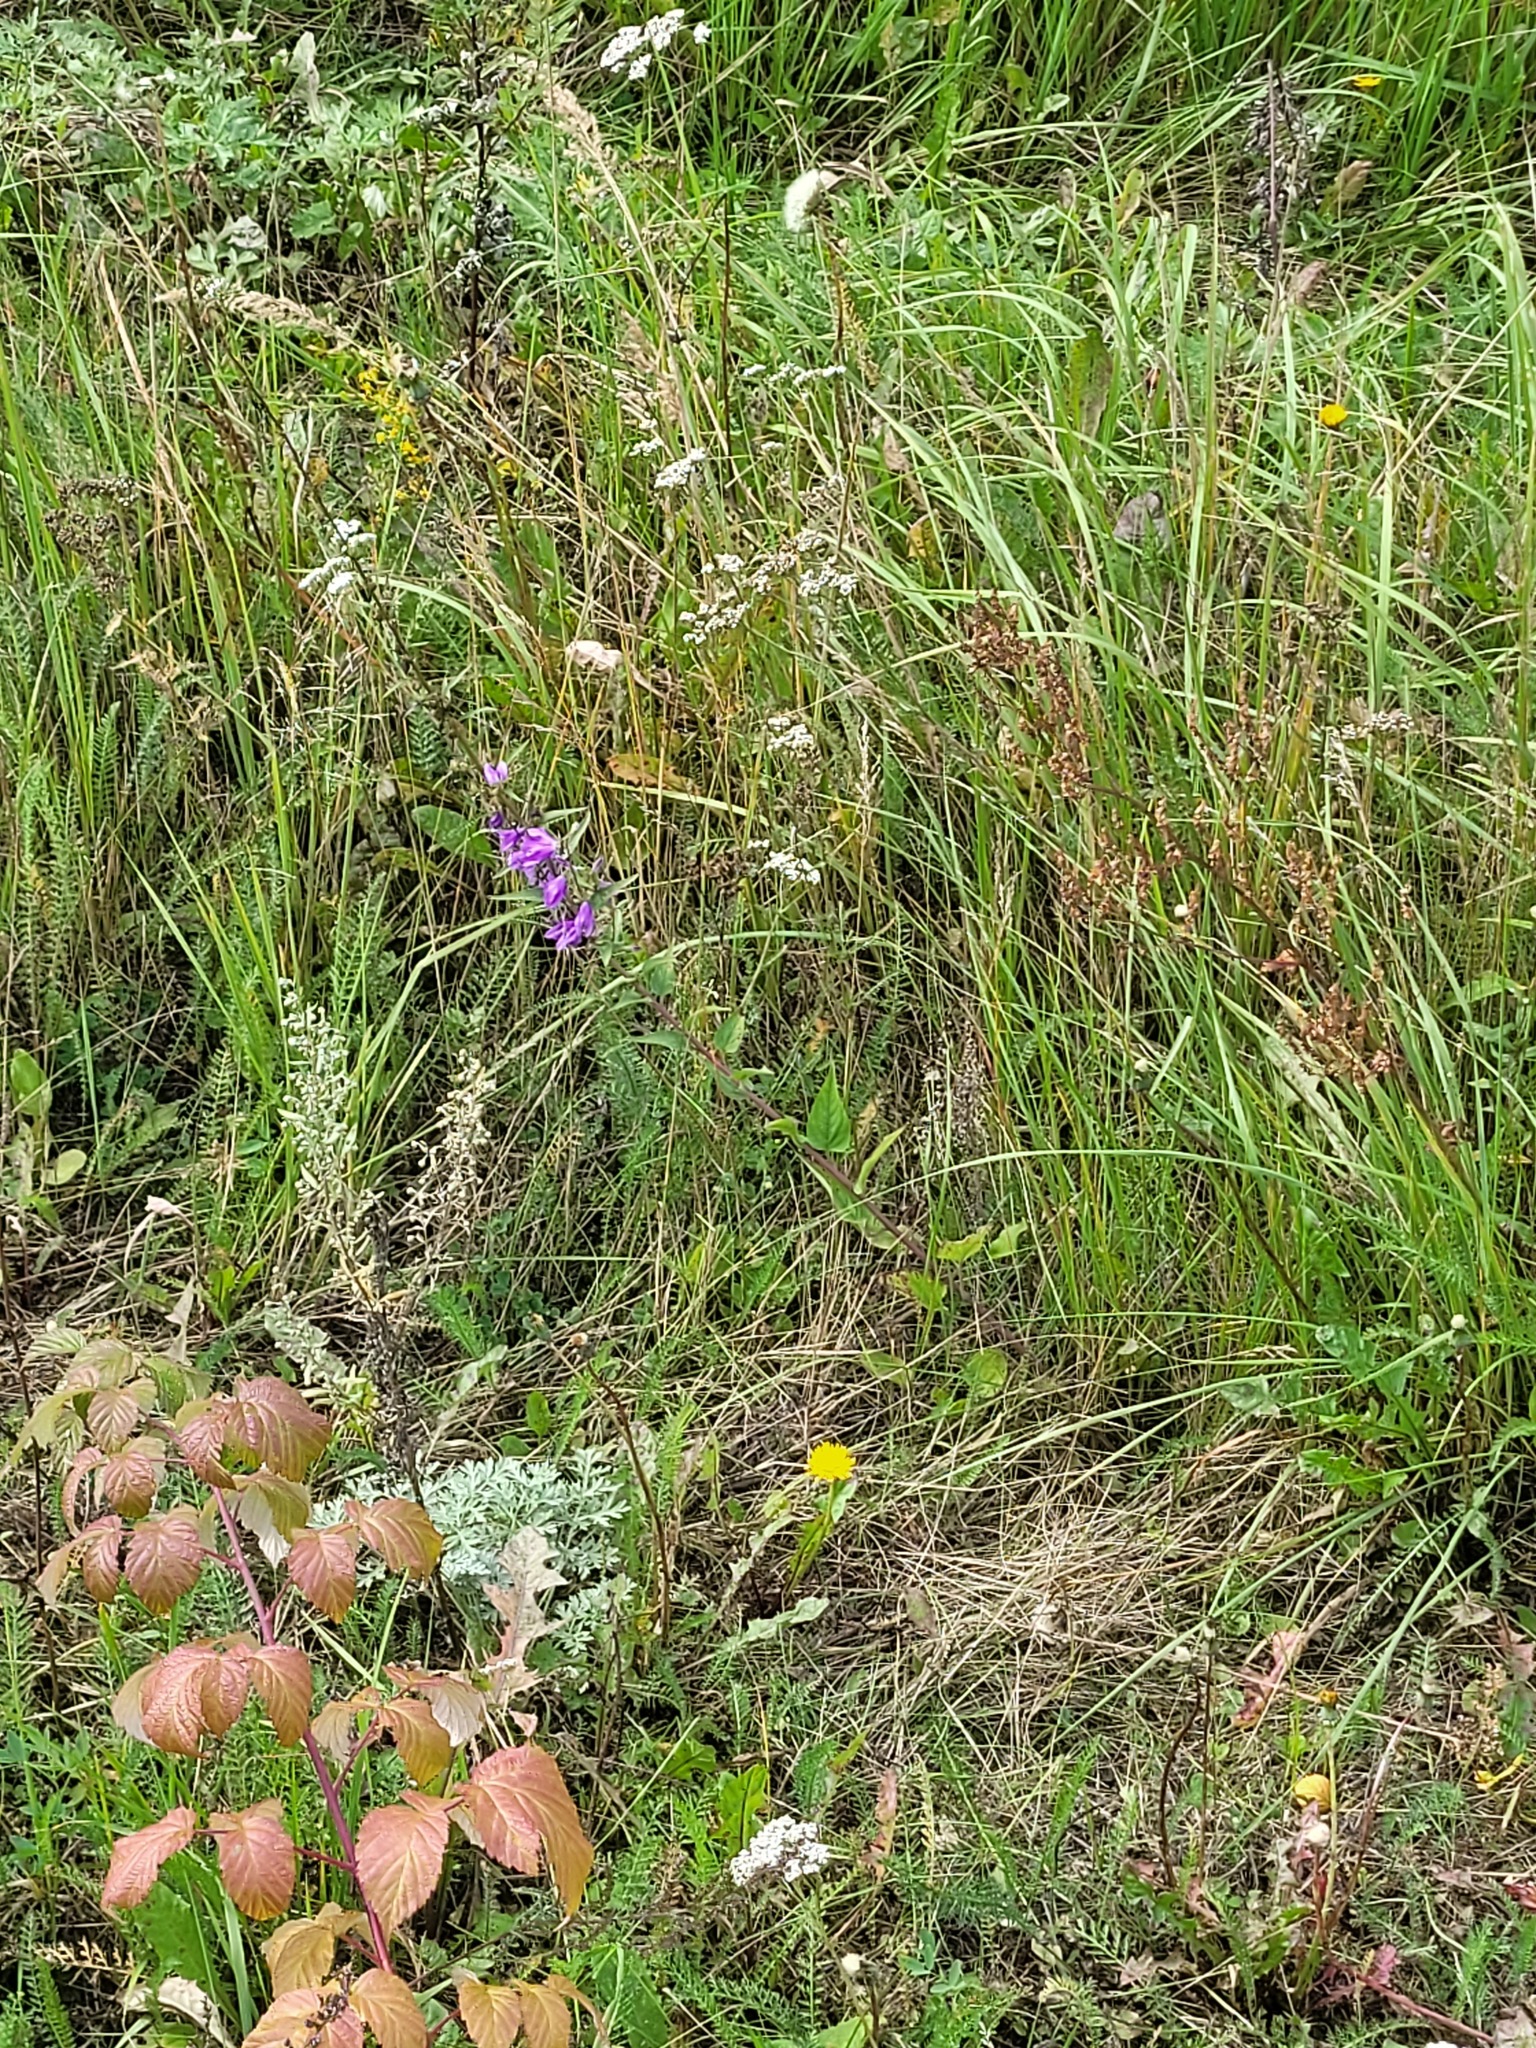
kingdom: Plantae
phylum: Tracheophyta
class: Magnoliopsida
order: Asterales
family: Campanulaceae
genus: Campanula
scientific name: Campanula rapunculoides
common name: Creeping bellflower
